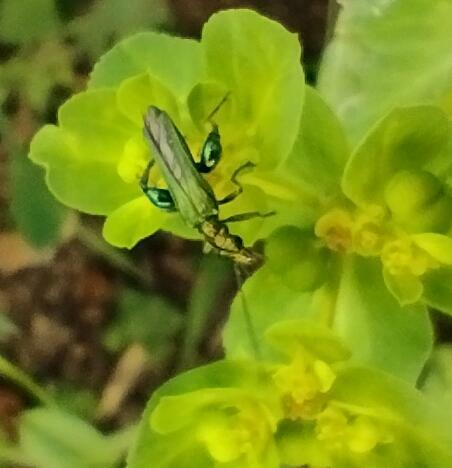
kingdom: Animalia
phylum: Arthropoda
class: Insecta
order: Coleoptera
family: Oedemeridae
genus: Oedemera
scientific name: Oedemera nobilis
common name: Swollen-thighed beetle
